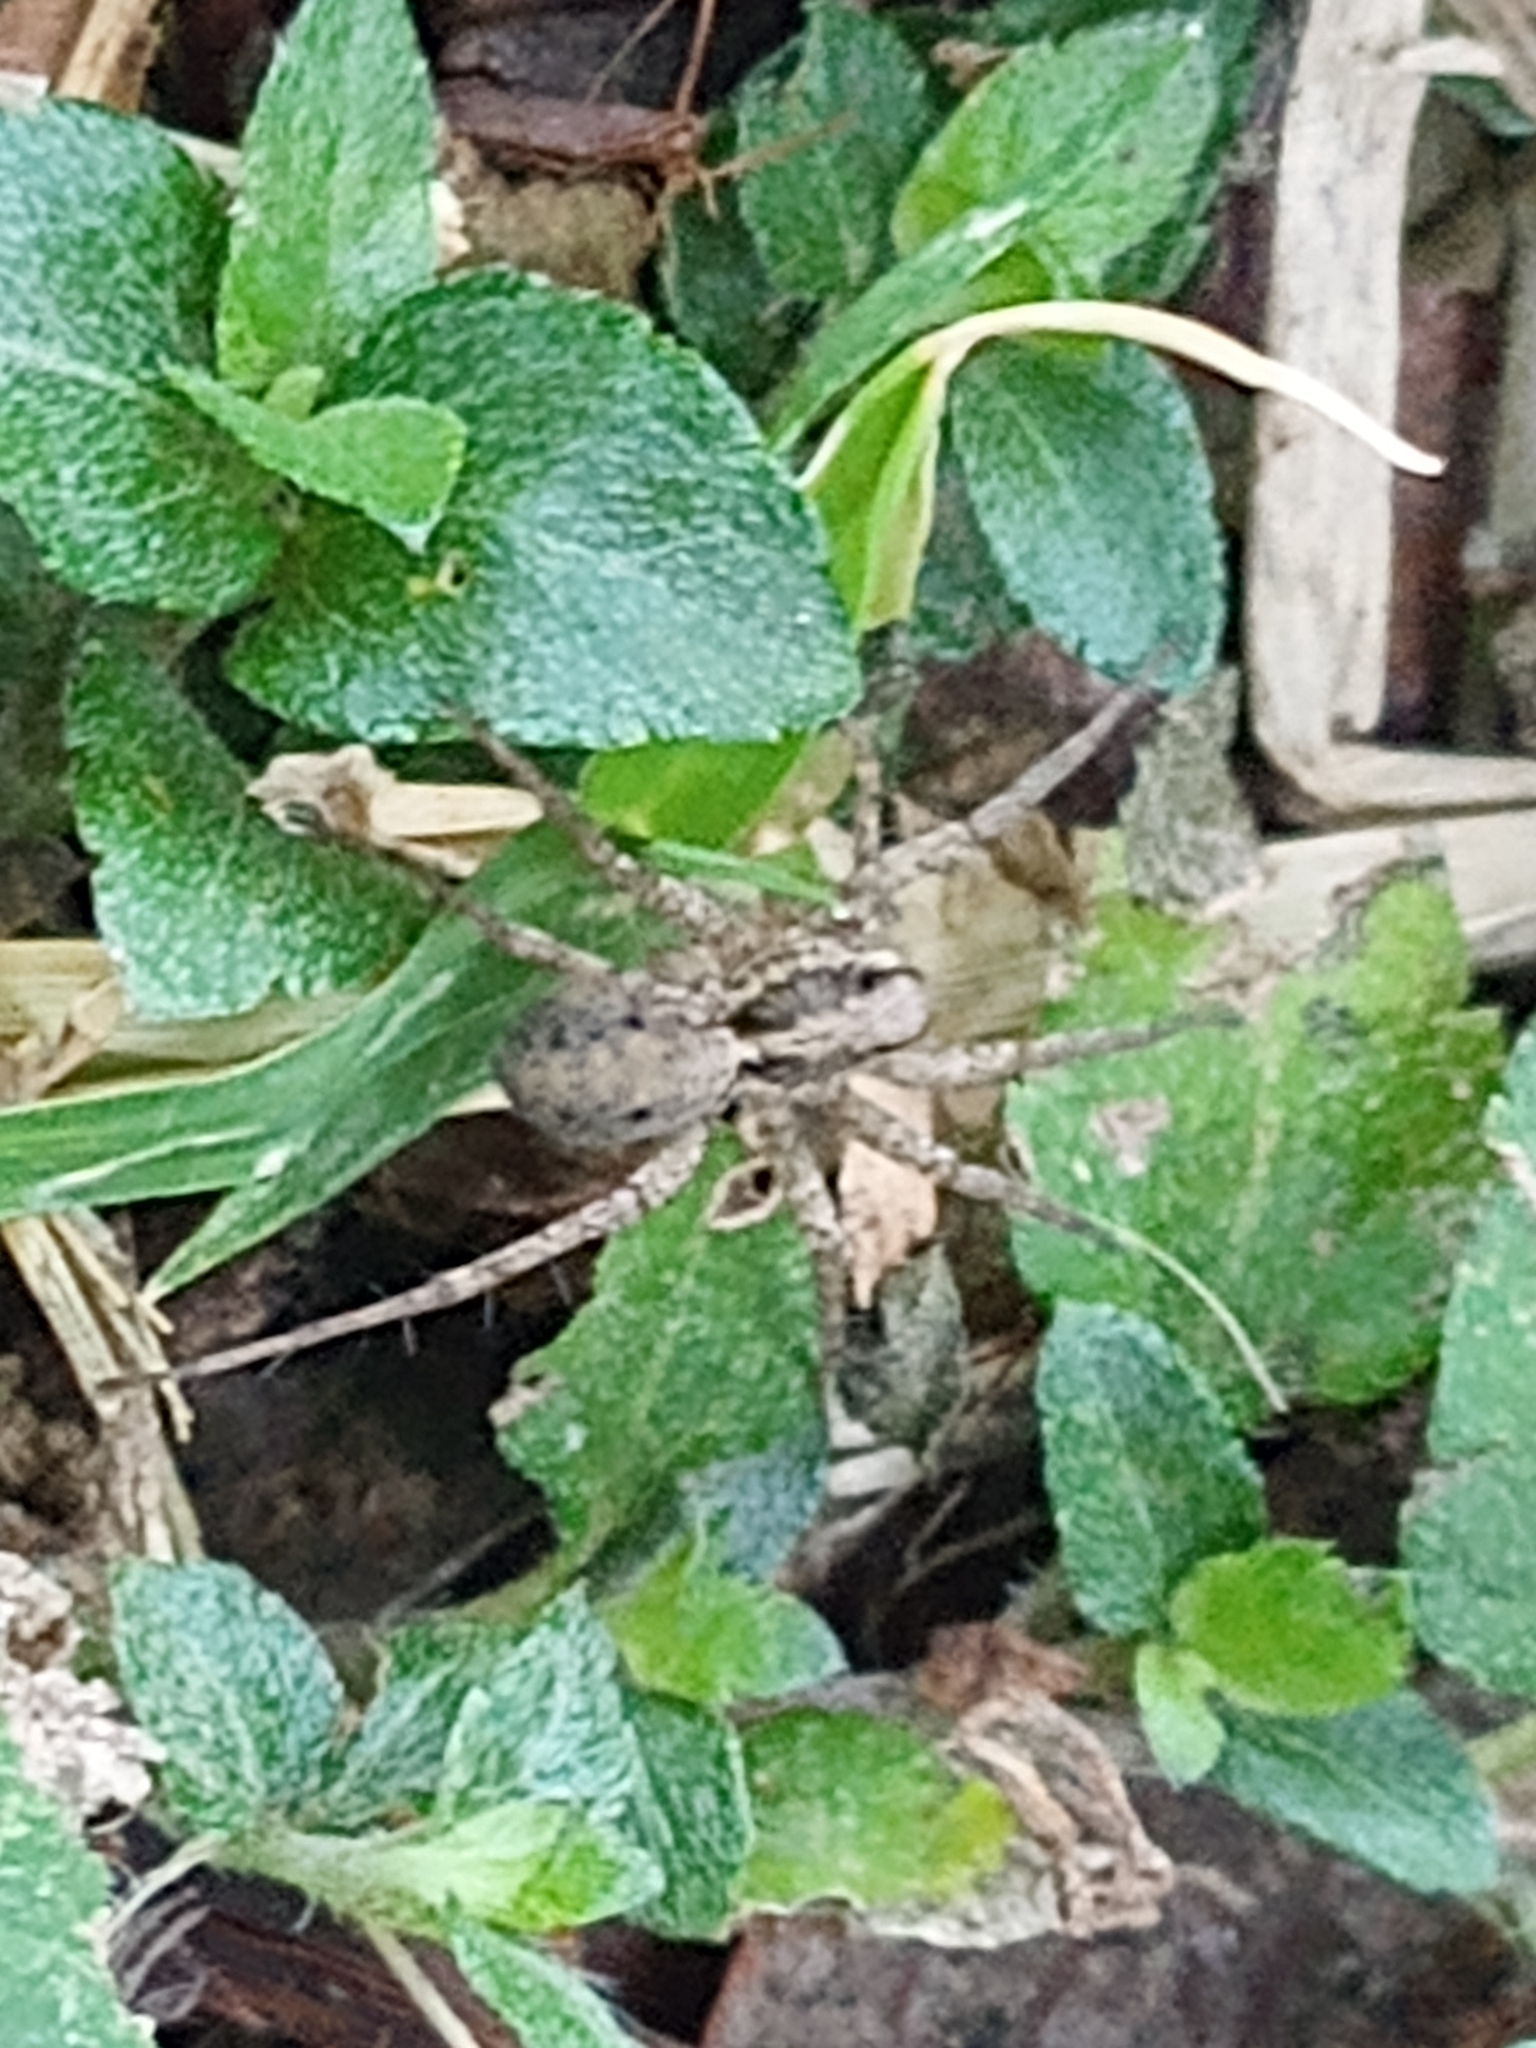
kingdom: Animalia
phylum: Arthropoda
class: Arachnida
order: Araneae
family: Lycosidae
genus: Pardosa
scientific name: Pardosa
